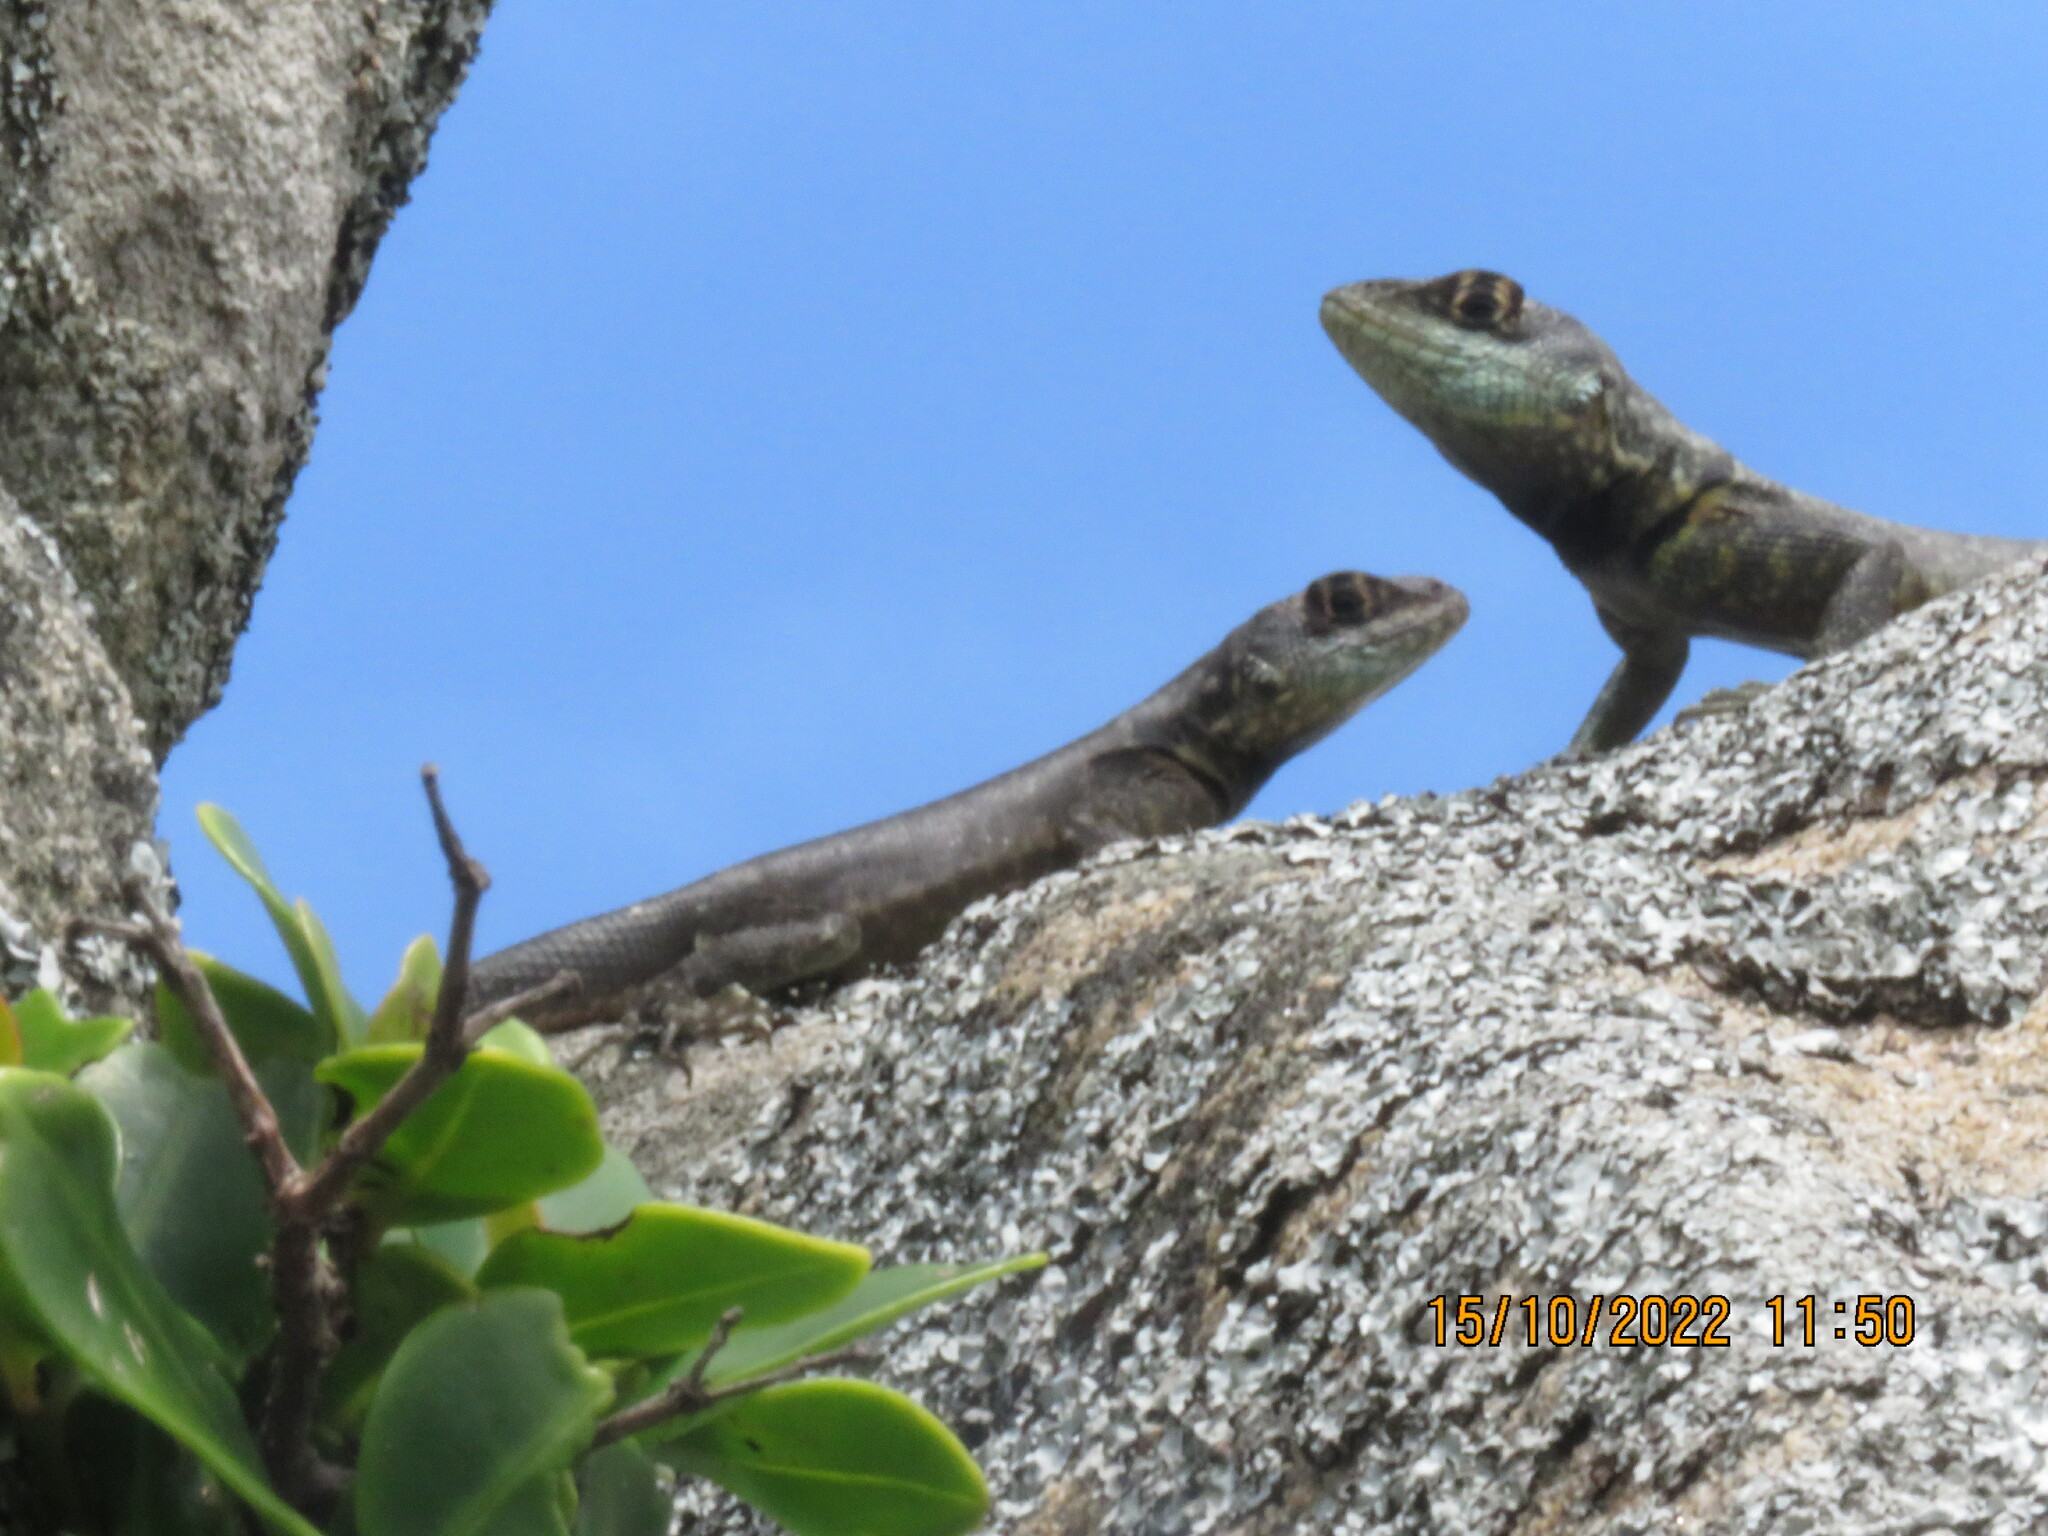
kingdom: Animalia
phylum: Chordata
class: Squamata
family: Tropiduridae
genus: Tropidurus
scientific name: Tropidurus imbituba
